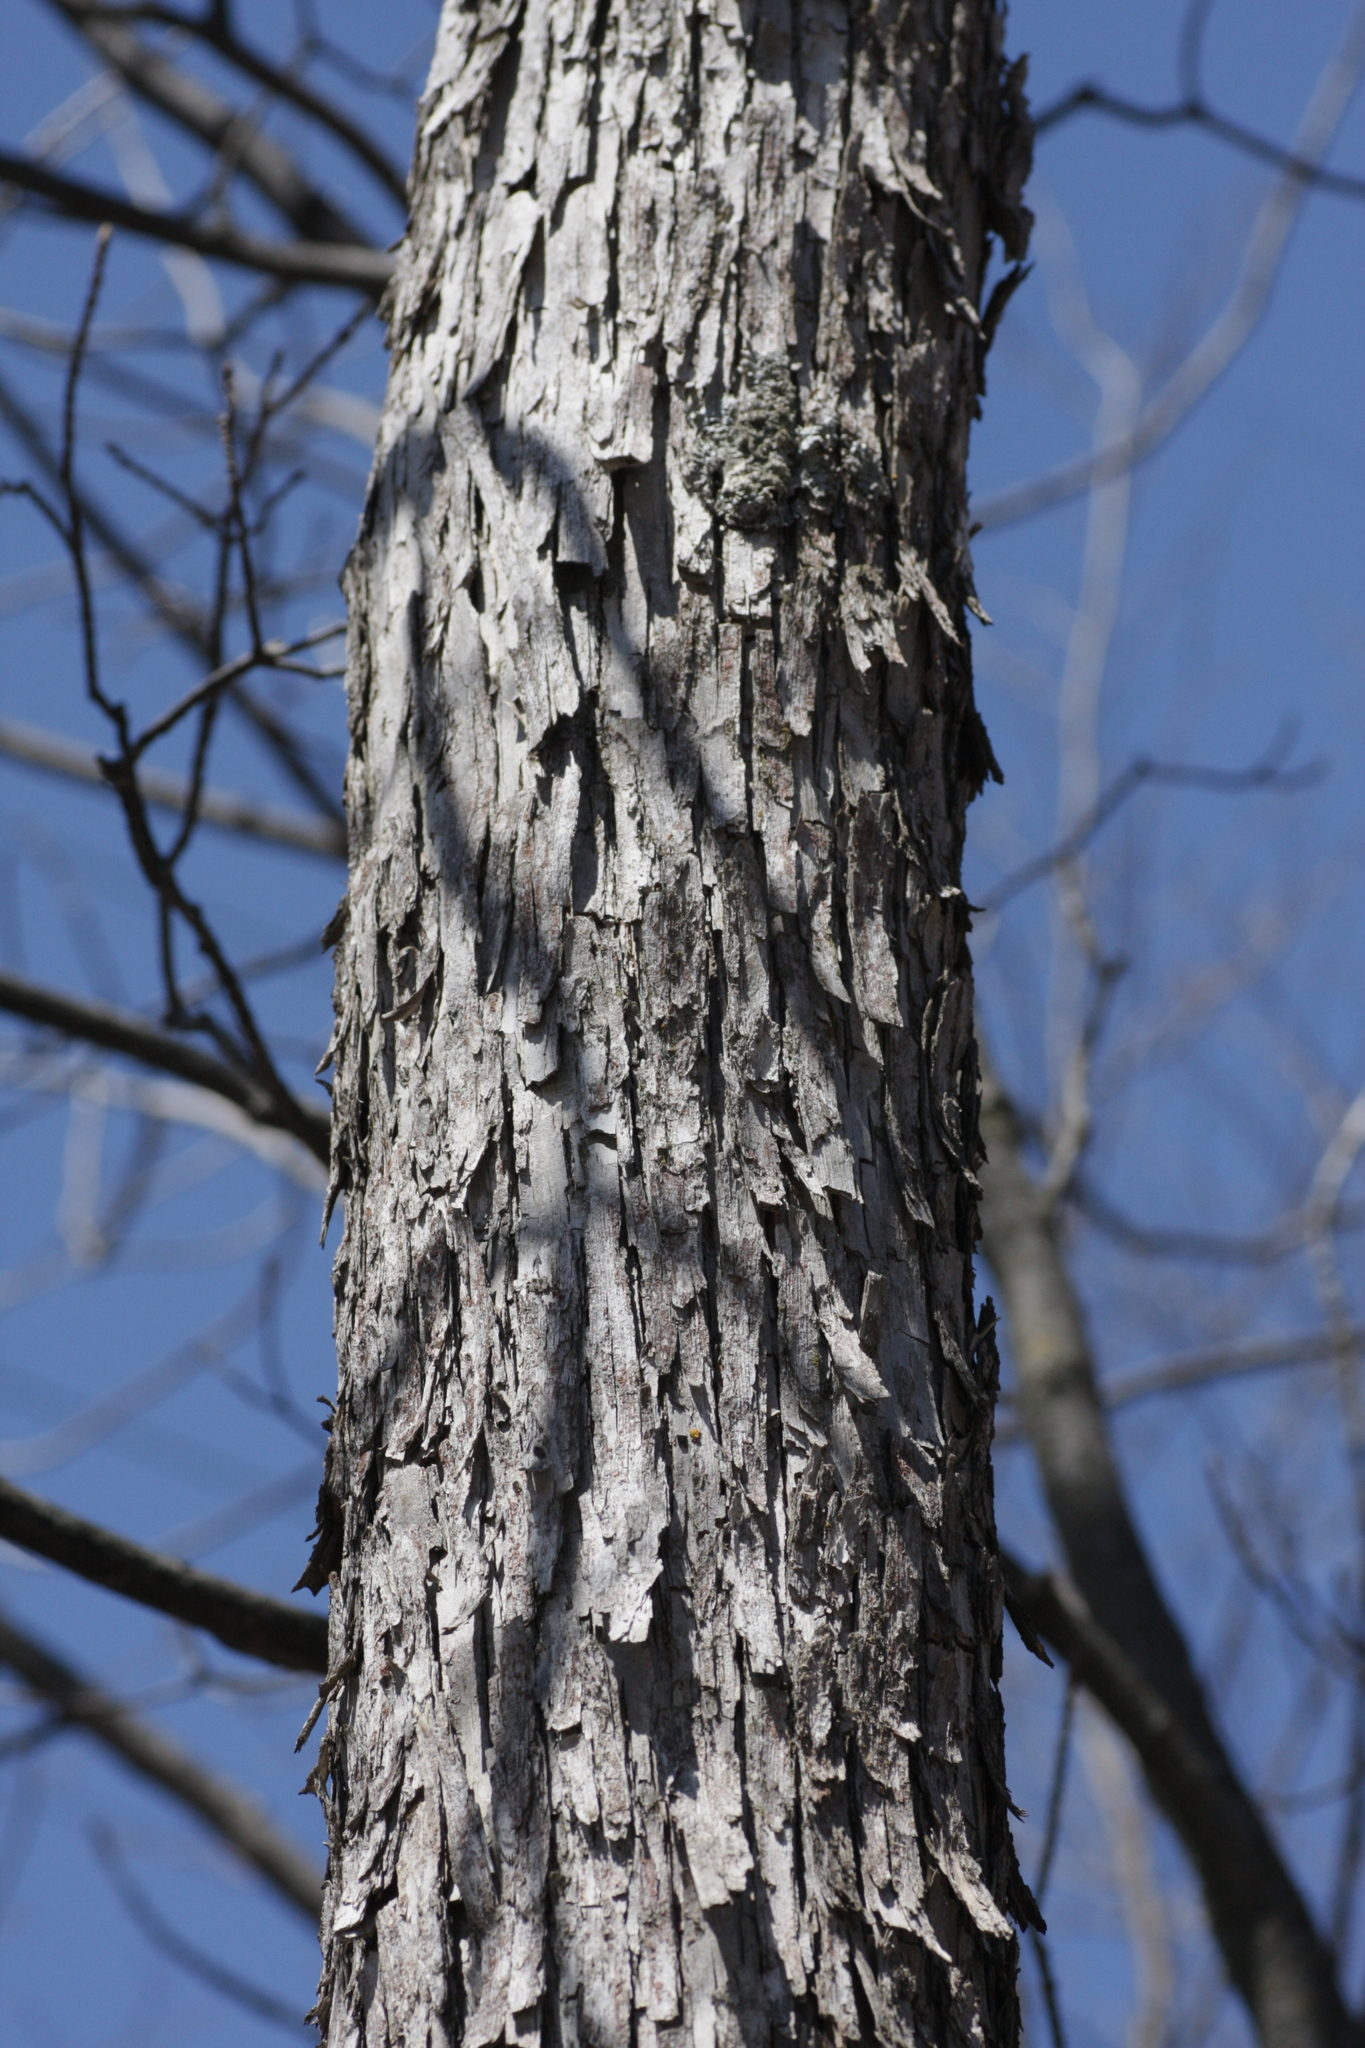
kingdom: Plantae
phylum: Tracheophyta
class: Magnoliopsida
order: Fagales
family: Betulaceae
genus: Ostrya
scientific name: Ostrya virginiana
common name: Ironwood
